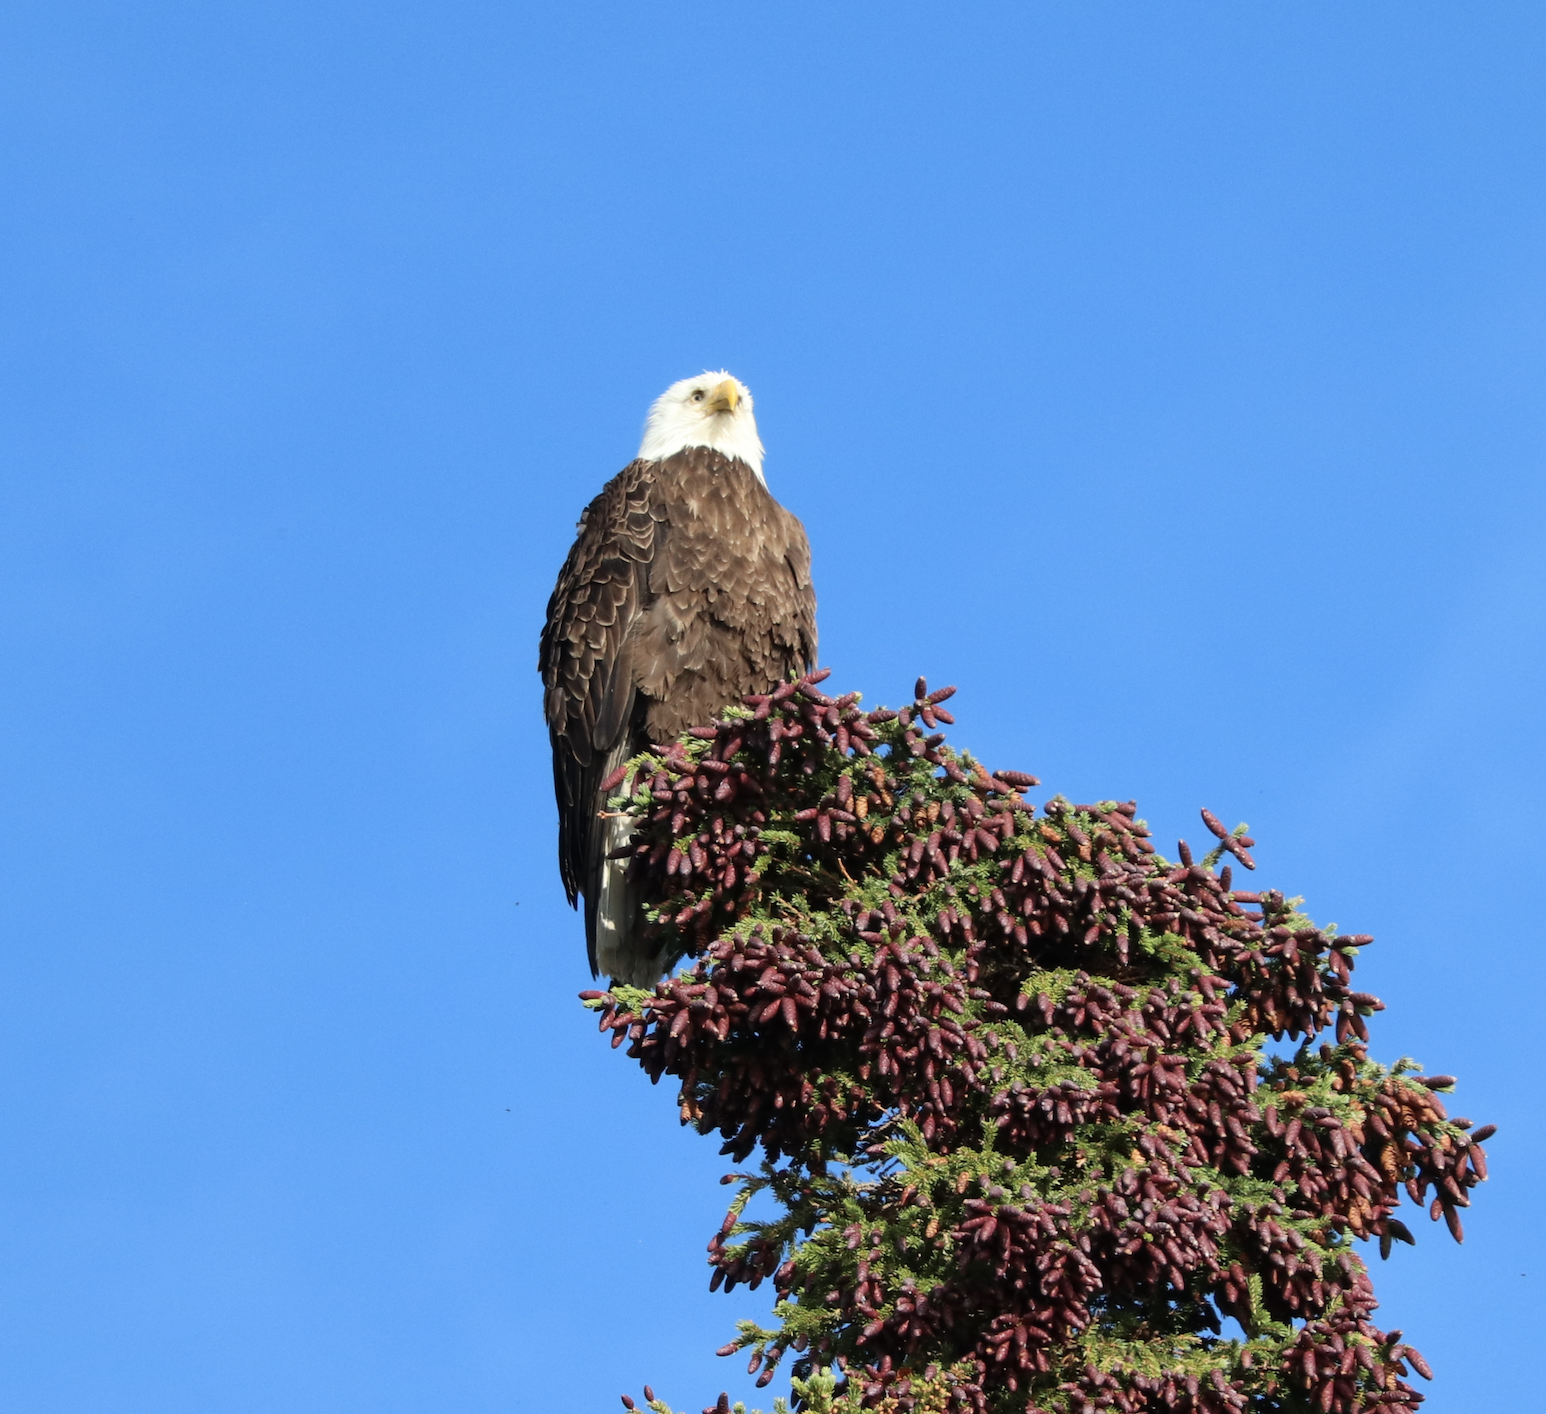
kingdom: Animalia
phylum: Chordata
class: Aves
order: Accipitriformes
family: Accipitridae
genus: Haliaeetus
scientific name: Haliaeetus leucocephalus
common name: Bald eagle
